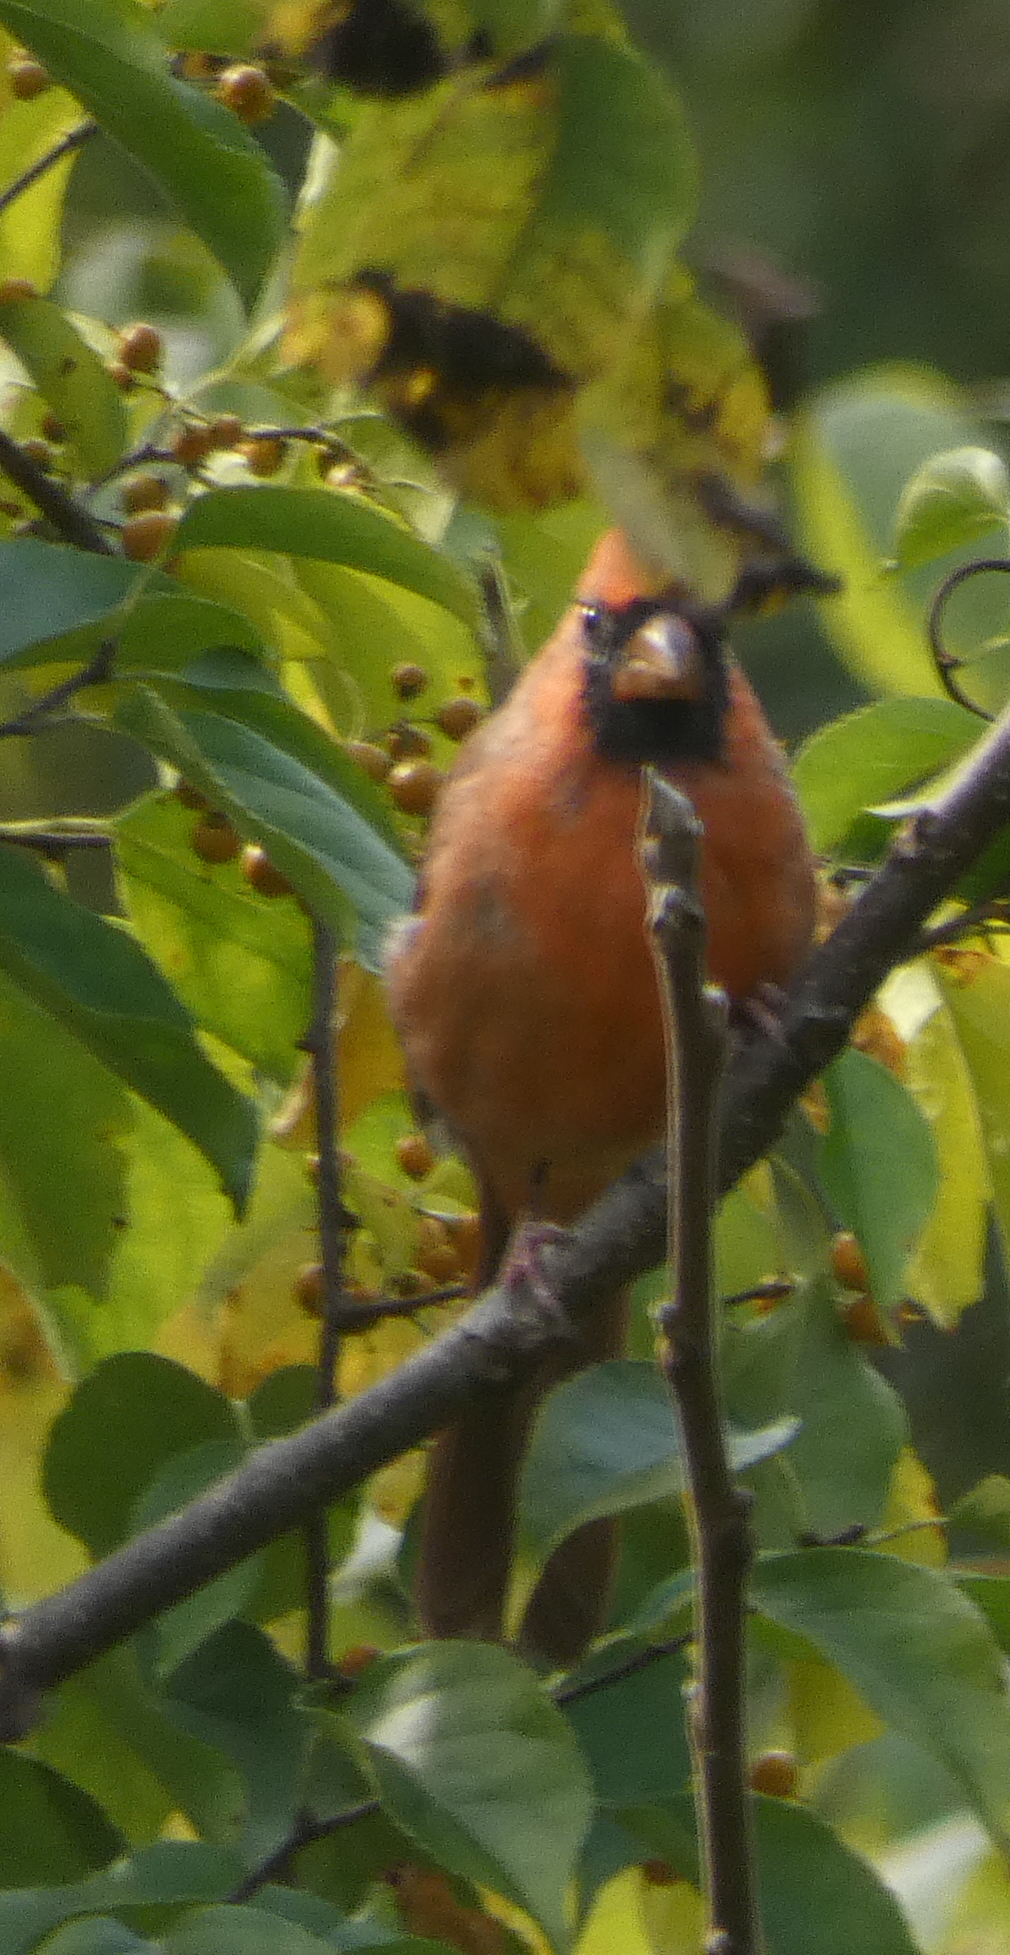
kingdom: Animalia
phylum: Chordata
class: Aves
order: Passeriformes
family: Cardinalidae
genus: Cardinalis
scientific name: Cardinalis cardinalis
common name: Northern cardinal
